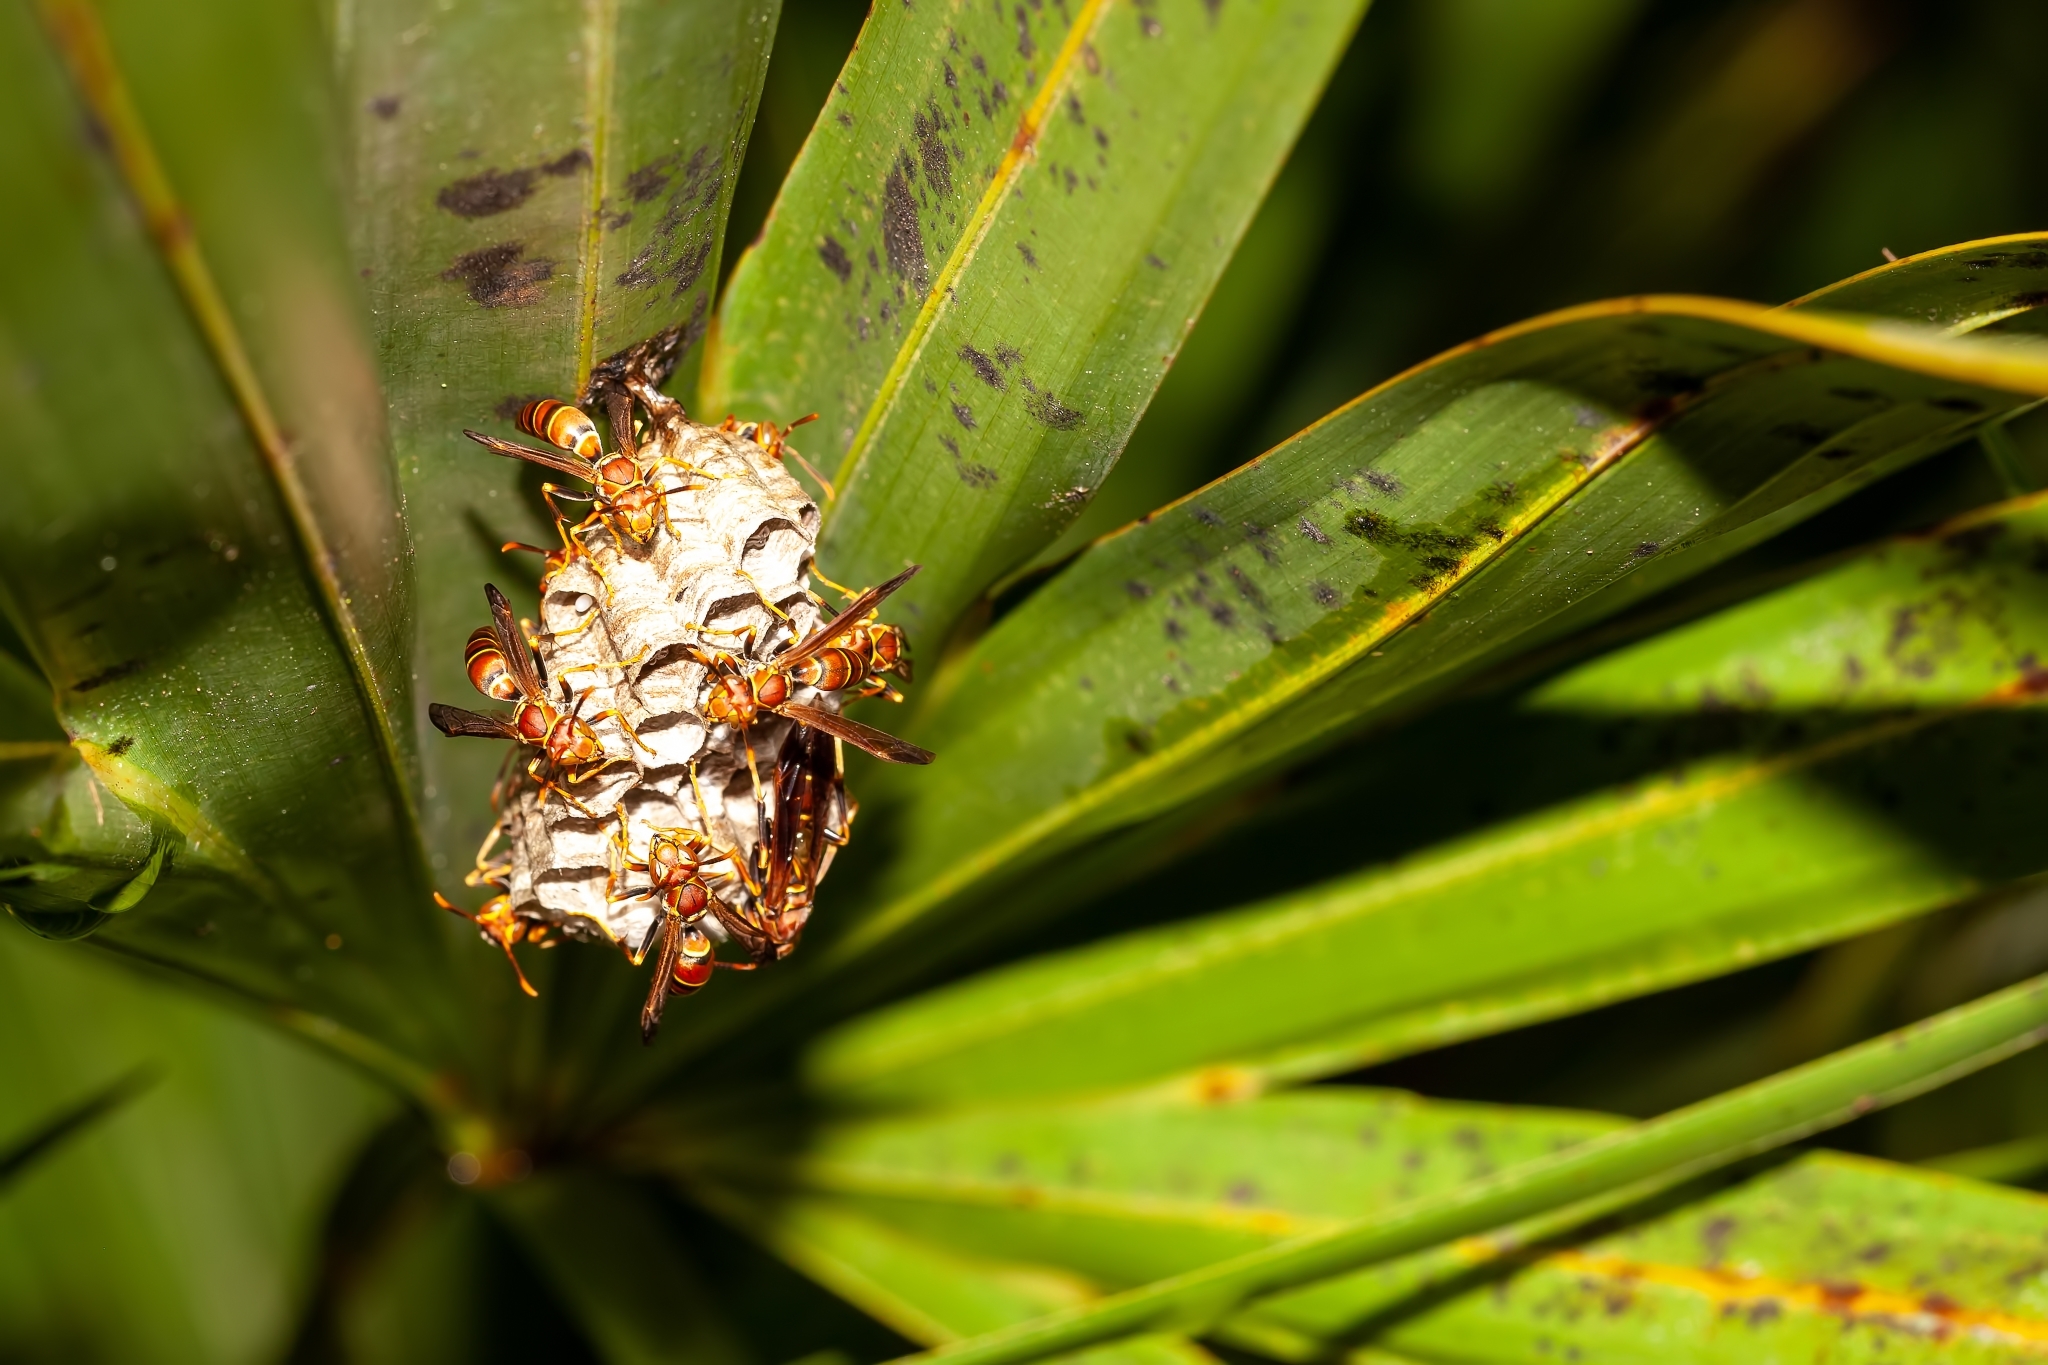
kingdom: Animalia
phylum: Arthropoda
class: Insecta
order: Hymenoptera
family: Eumenidae
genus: Polistes
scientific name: Polistes bahamensis
